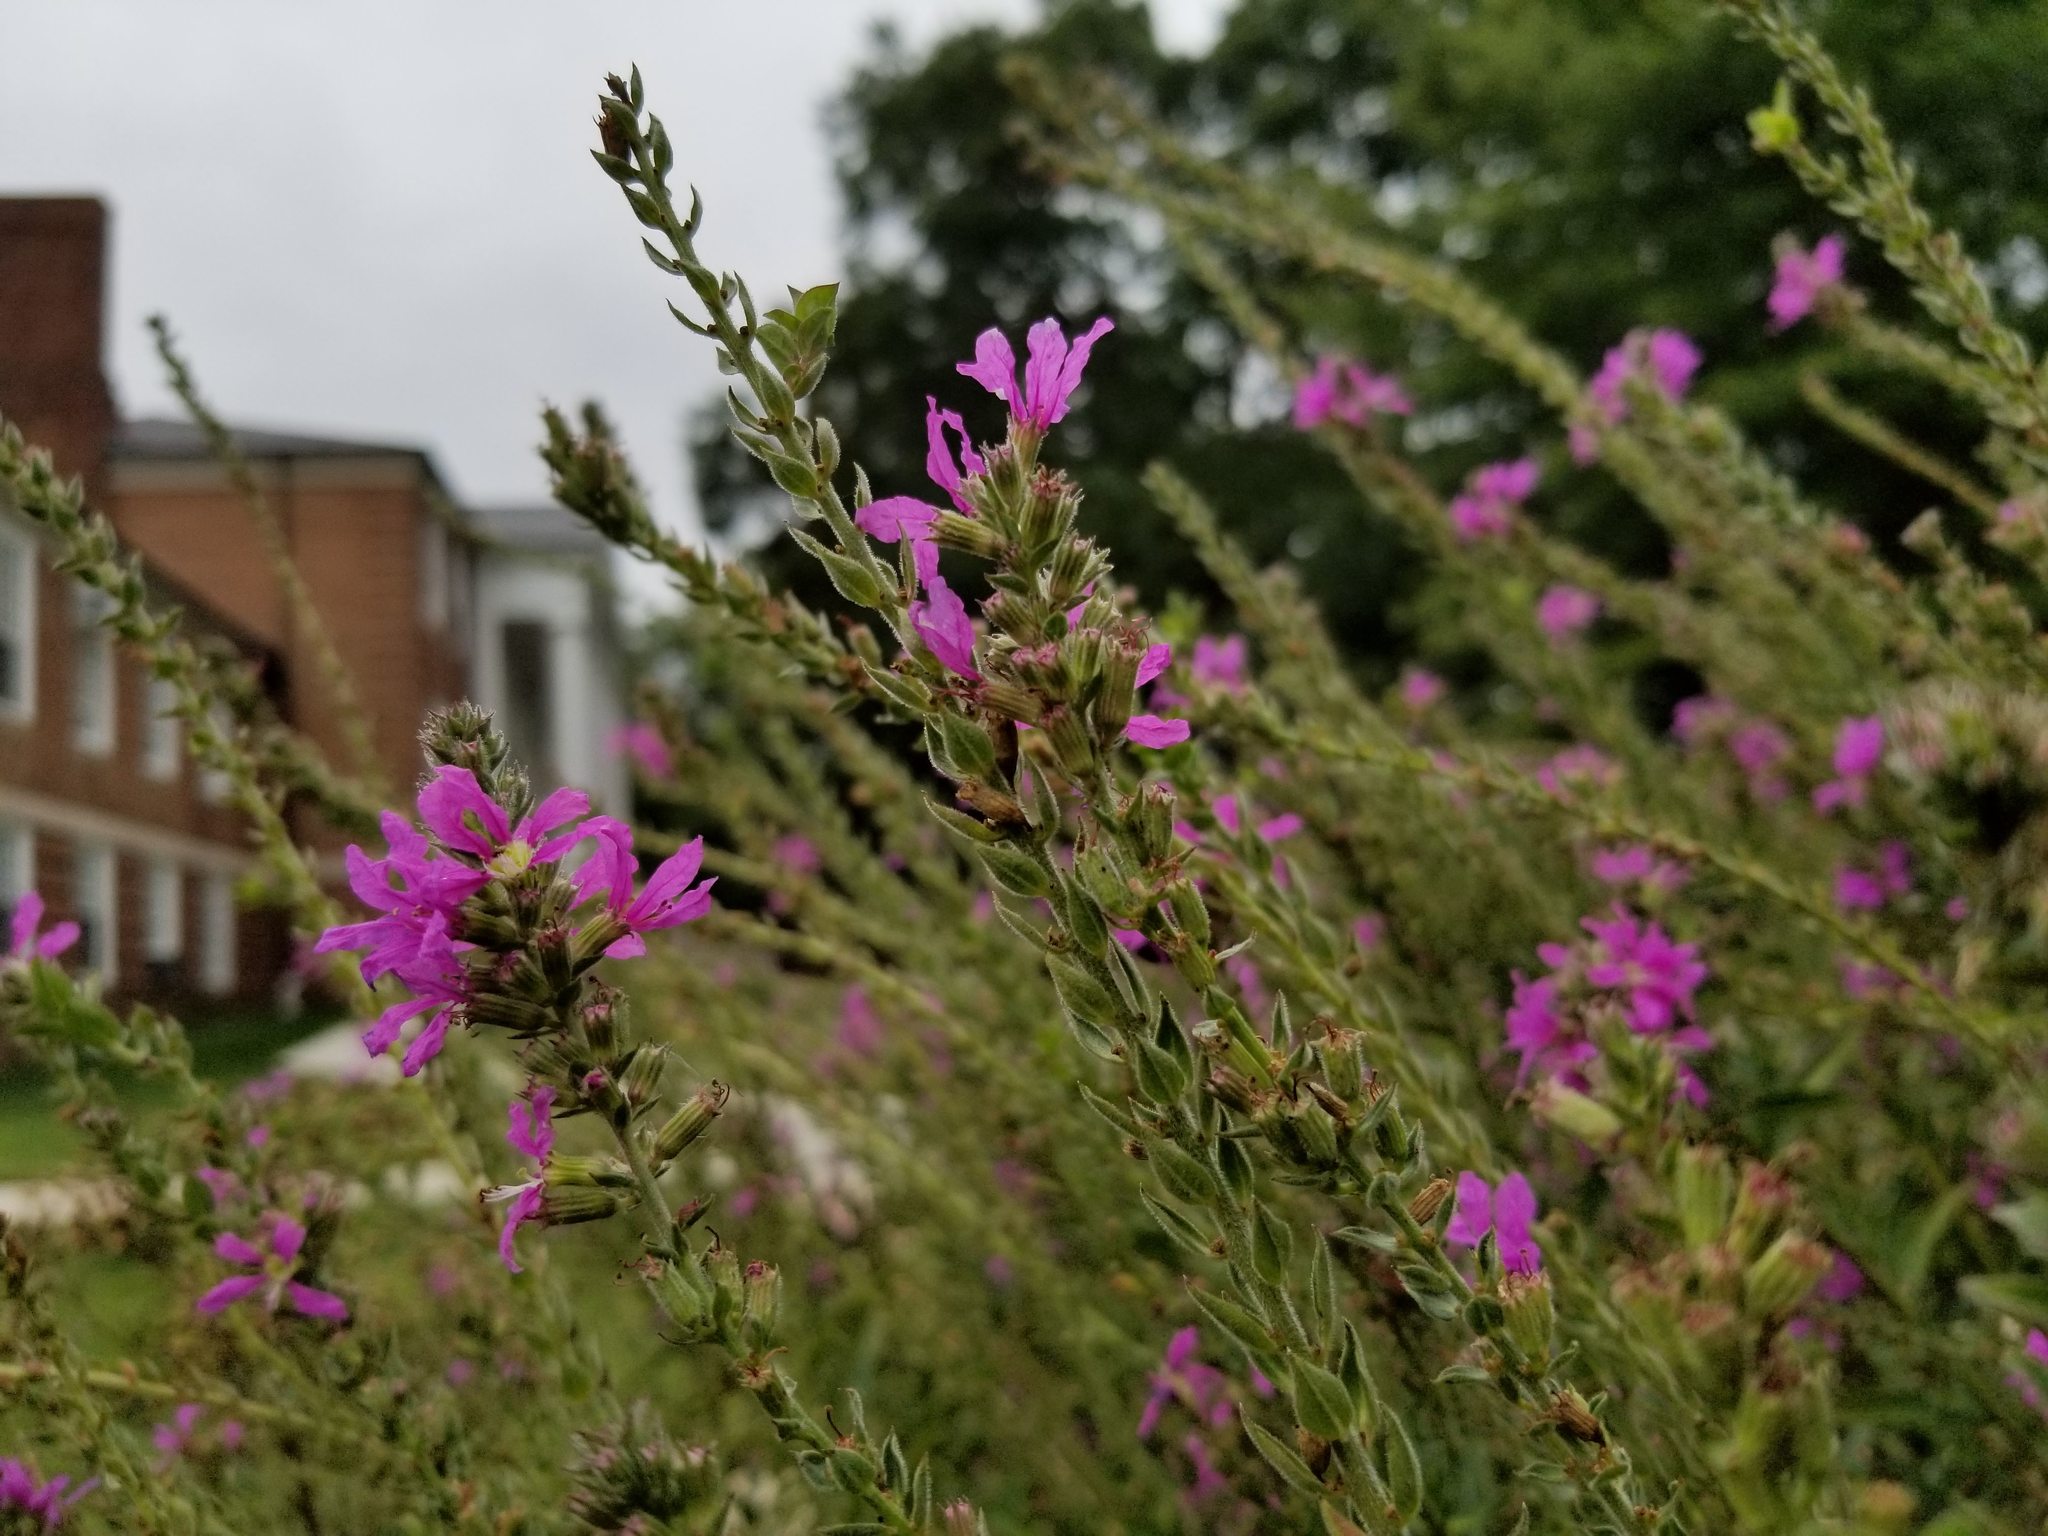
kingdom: Plantae
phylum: Tracheophyta
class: Magnoliopsida
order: Myrtales
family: Lythraceae
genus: Lythrum
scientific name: Lythrum salicaria
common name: Purple loosestrife
